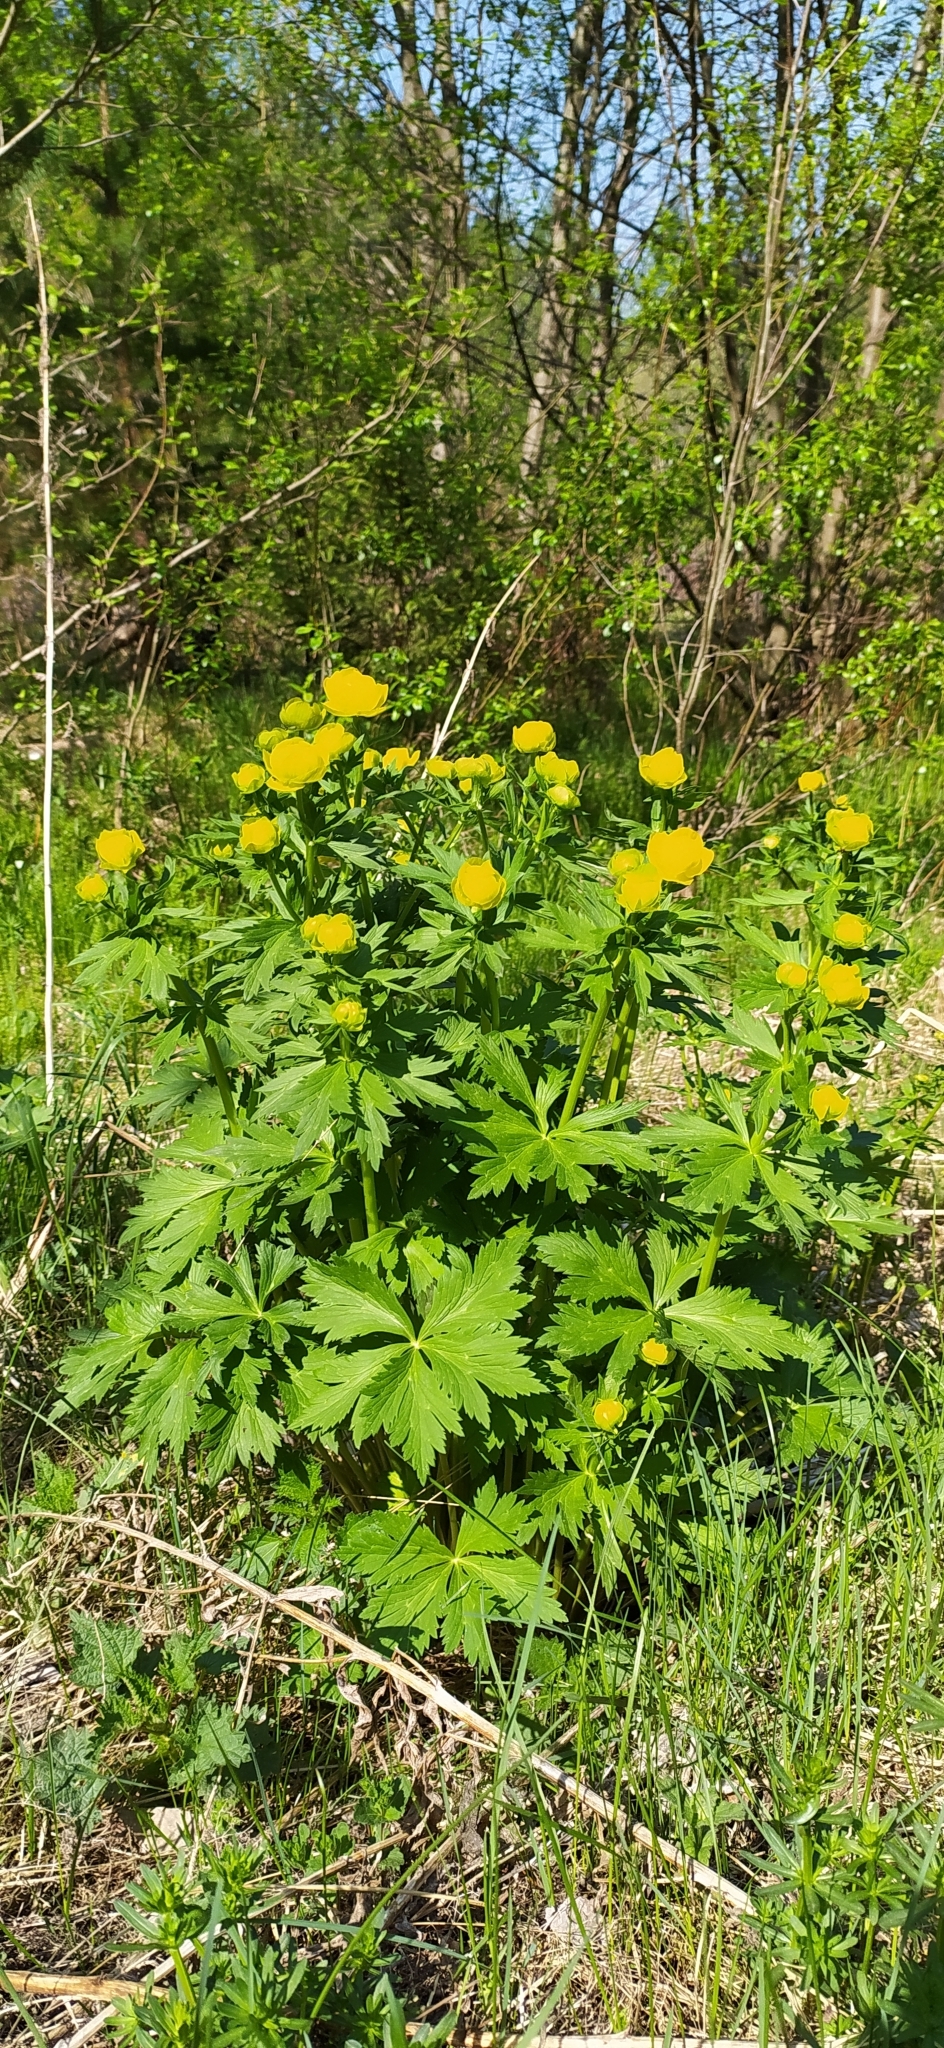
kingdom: Plantae
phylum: Tracheophyta
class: Magnoliopsida
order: Ranunculales
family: Ranunculaceae
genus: Trollius
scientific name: Trollius europaeus
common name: European globeflower
